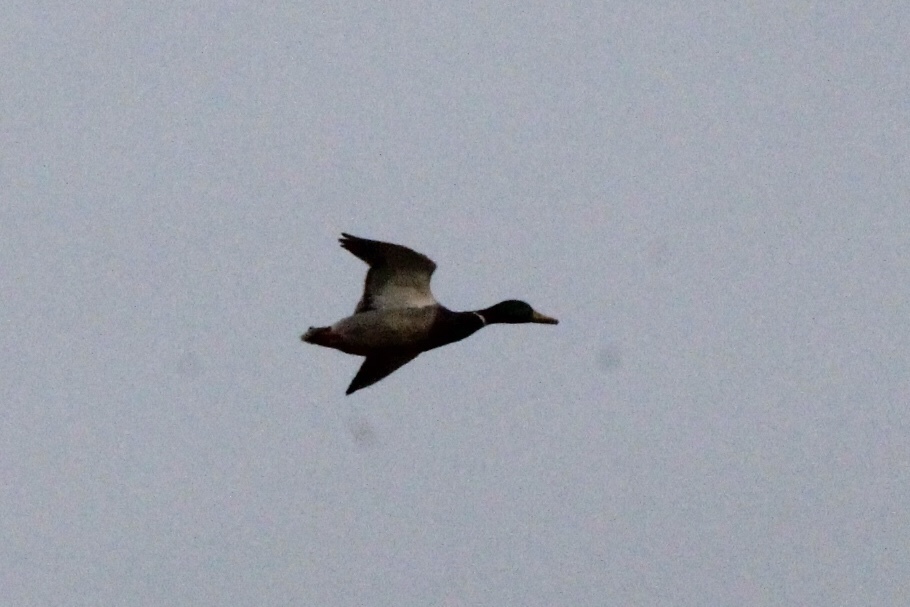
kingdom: Animalia
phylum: Chordata
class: Aves
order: Anseriformes
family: Anatidae
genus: Anas
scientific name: Anas platyrhynchos
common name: Mallard
